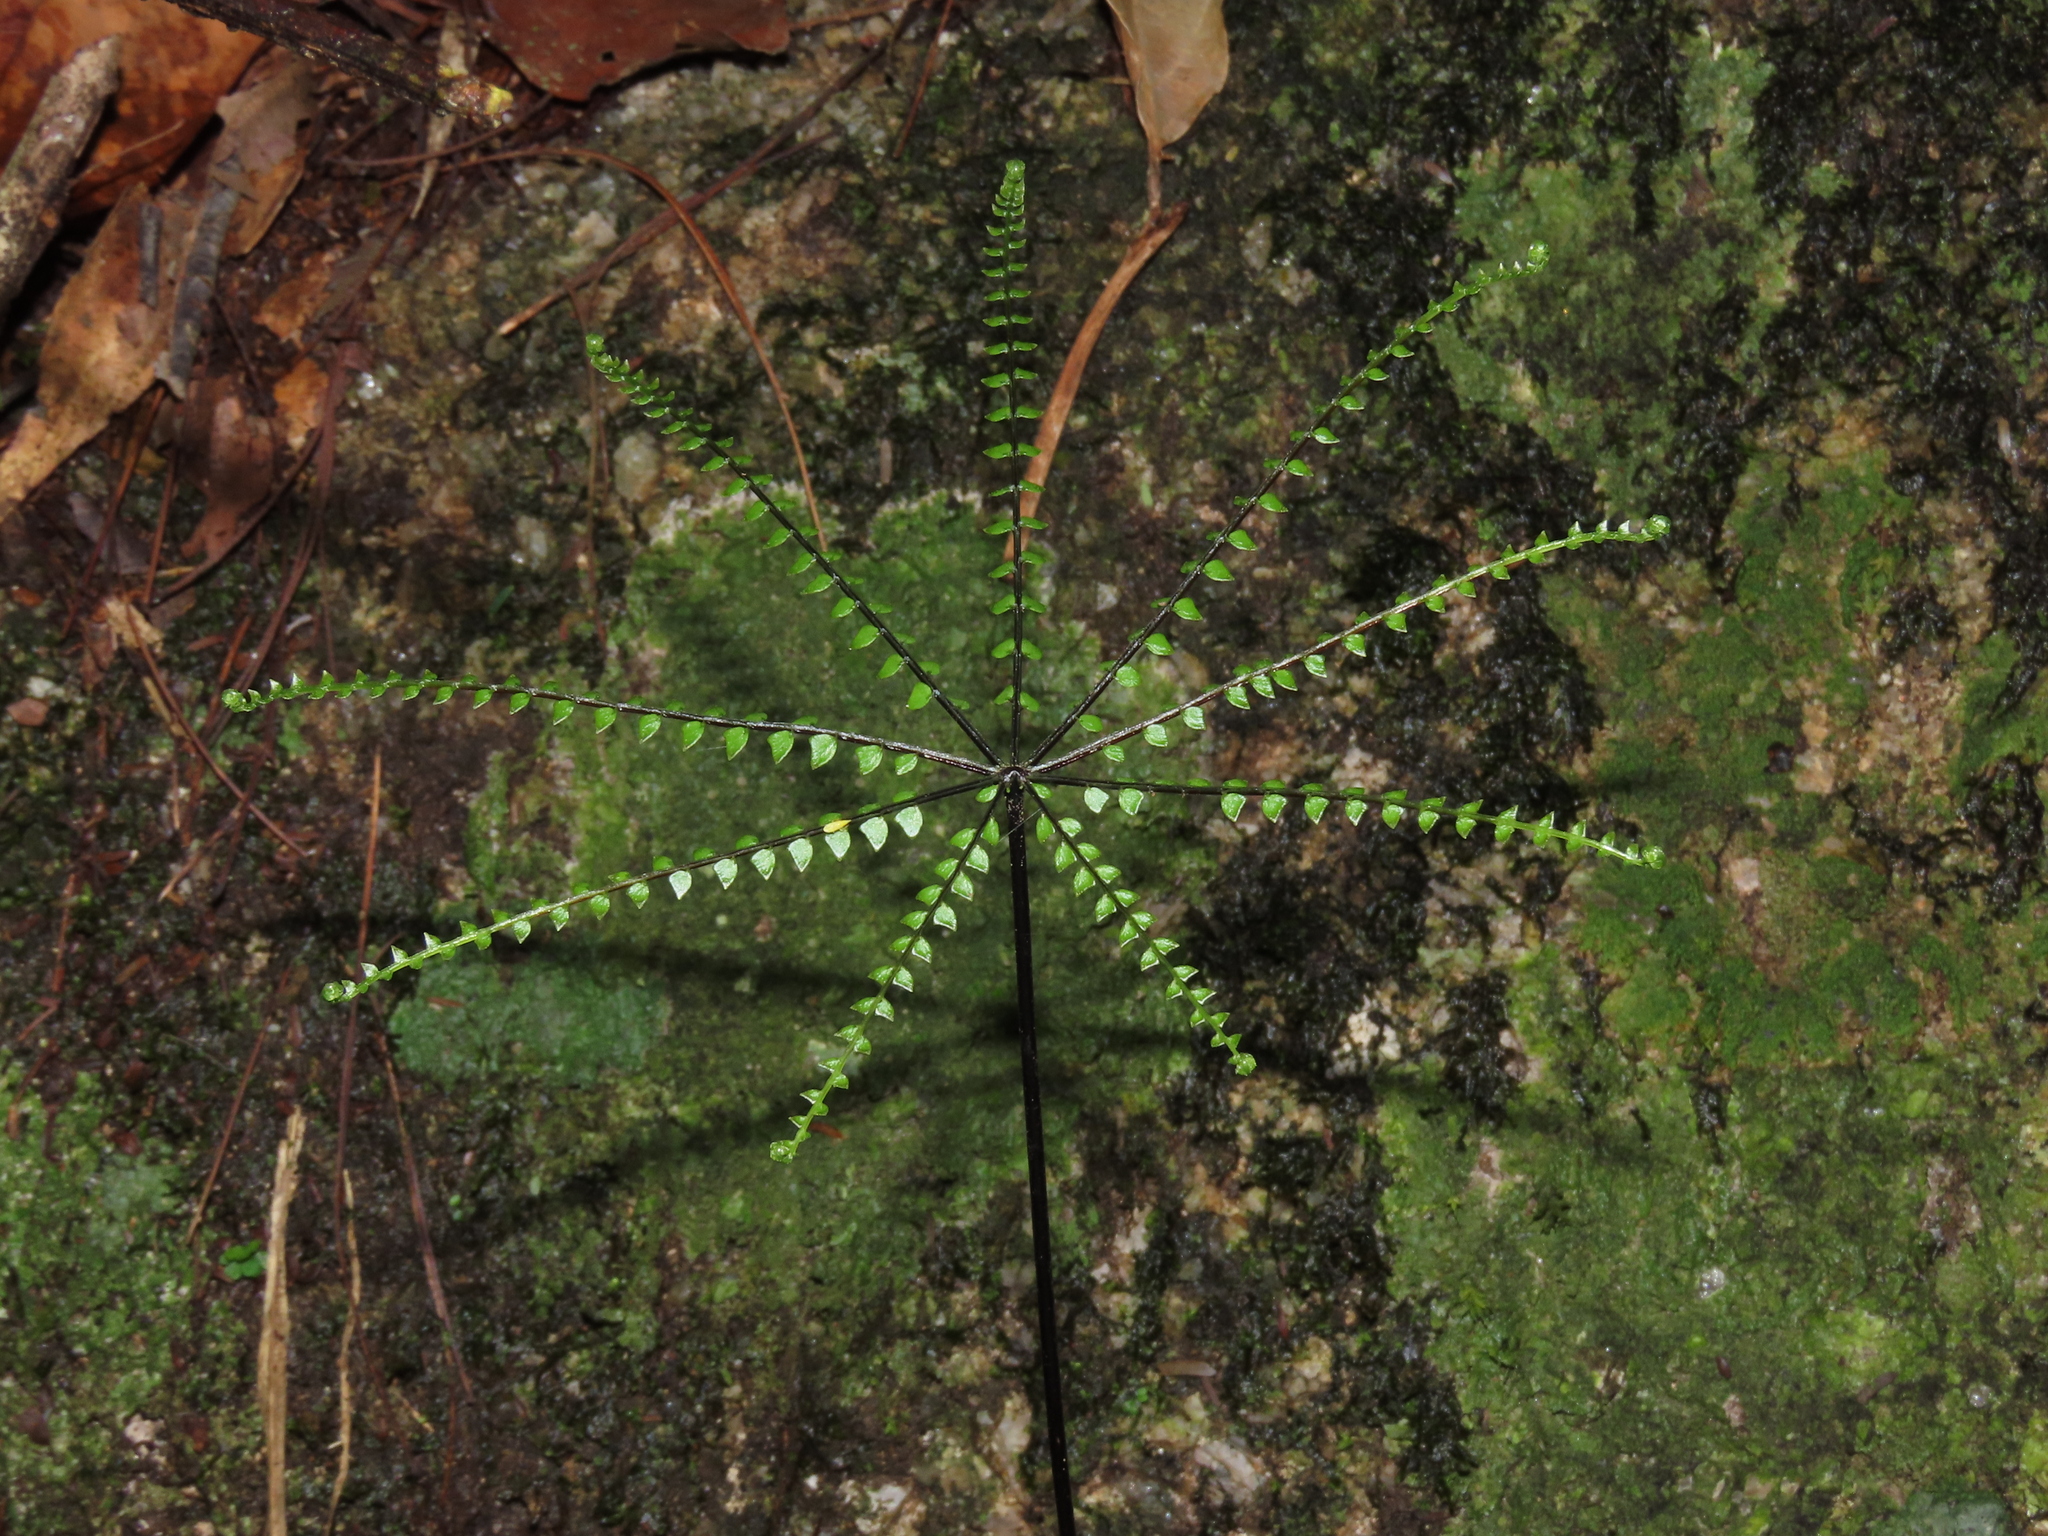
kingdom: Plantae
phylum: Tracheophyta
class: Polypodiopsida
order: Polypodiales
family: Pteridaceae
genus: Adiantopsis
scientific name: Adiantopsis radiata
